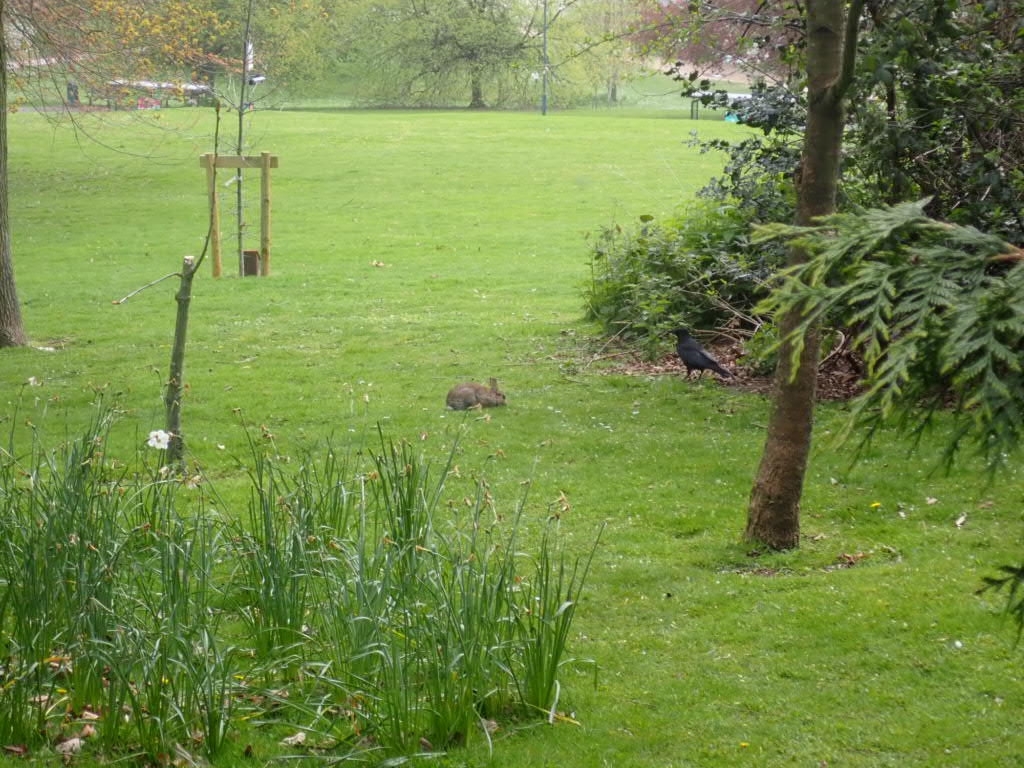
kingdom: Animalia
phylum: Chordata
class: Mammalia
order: Lagomorpha
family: Leporidae
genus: Oryctolagus
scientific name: Oryctolagus cuniculus
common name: European rabbit
